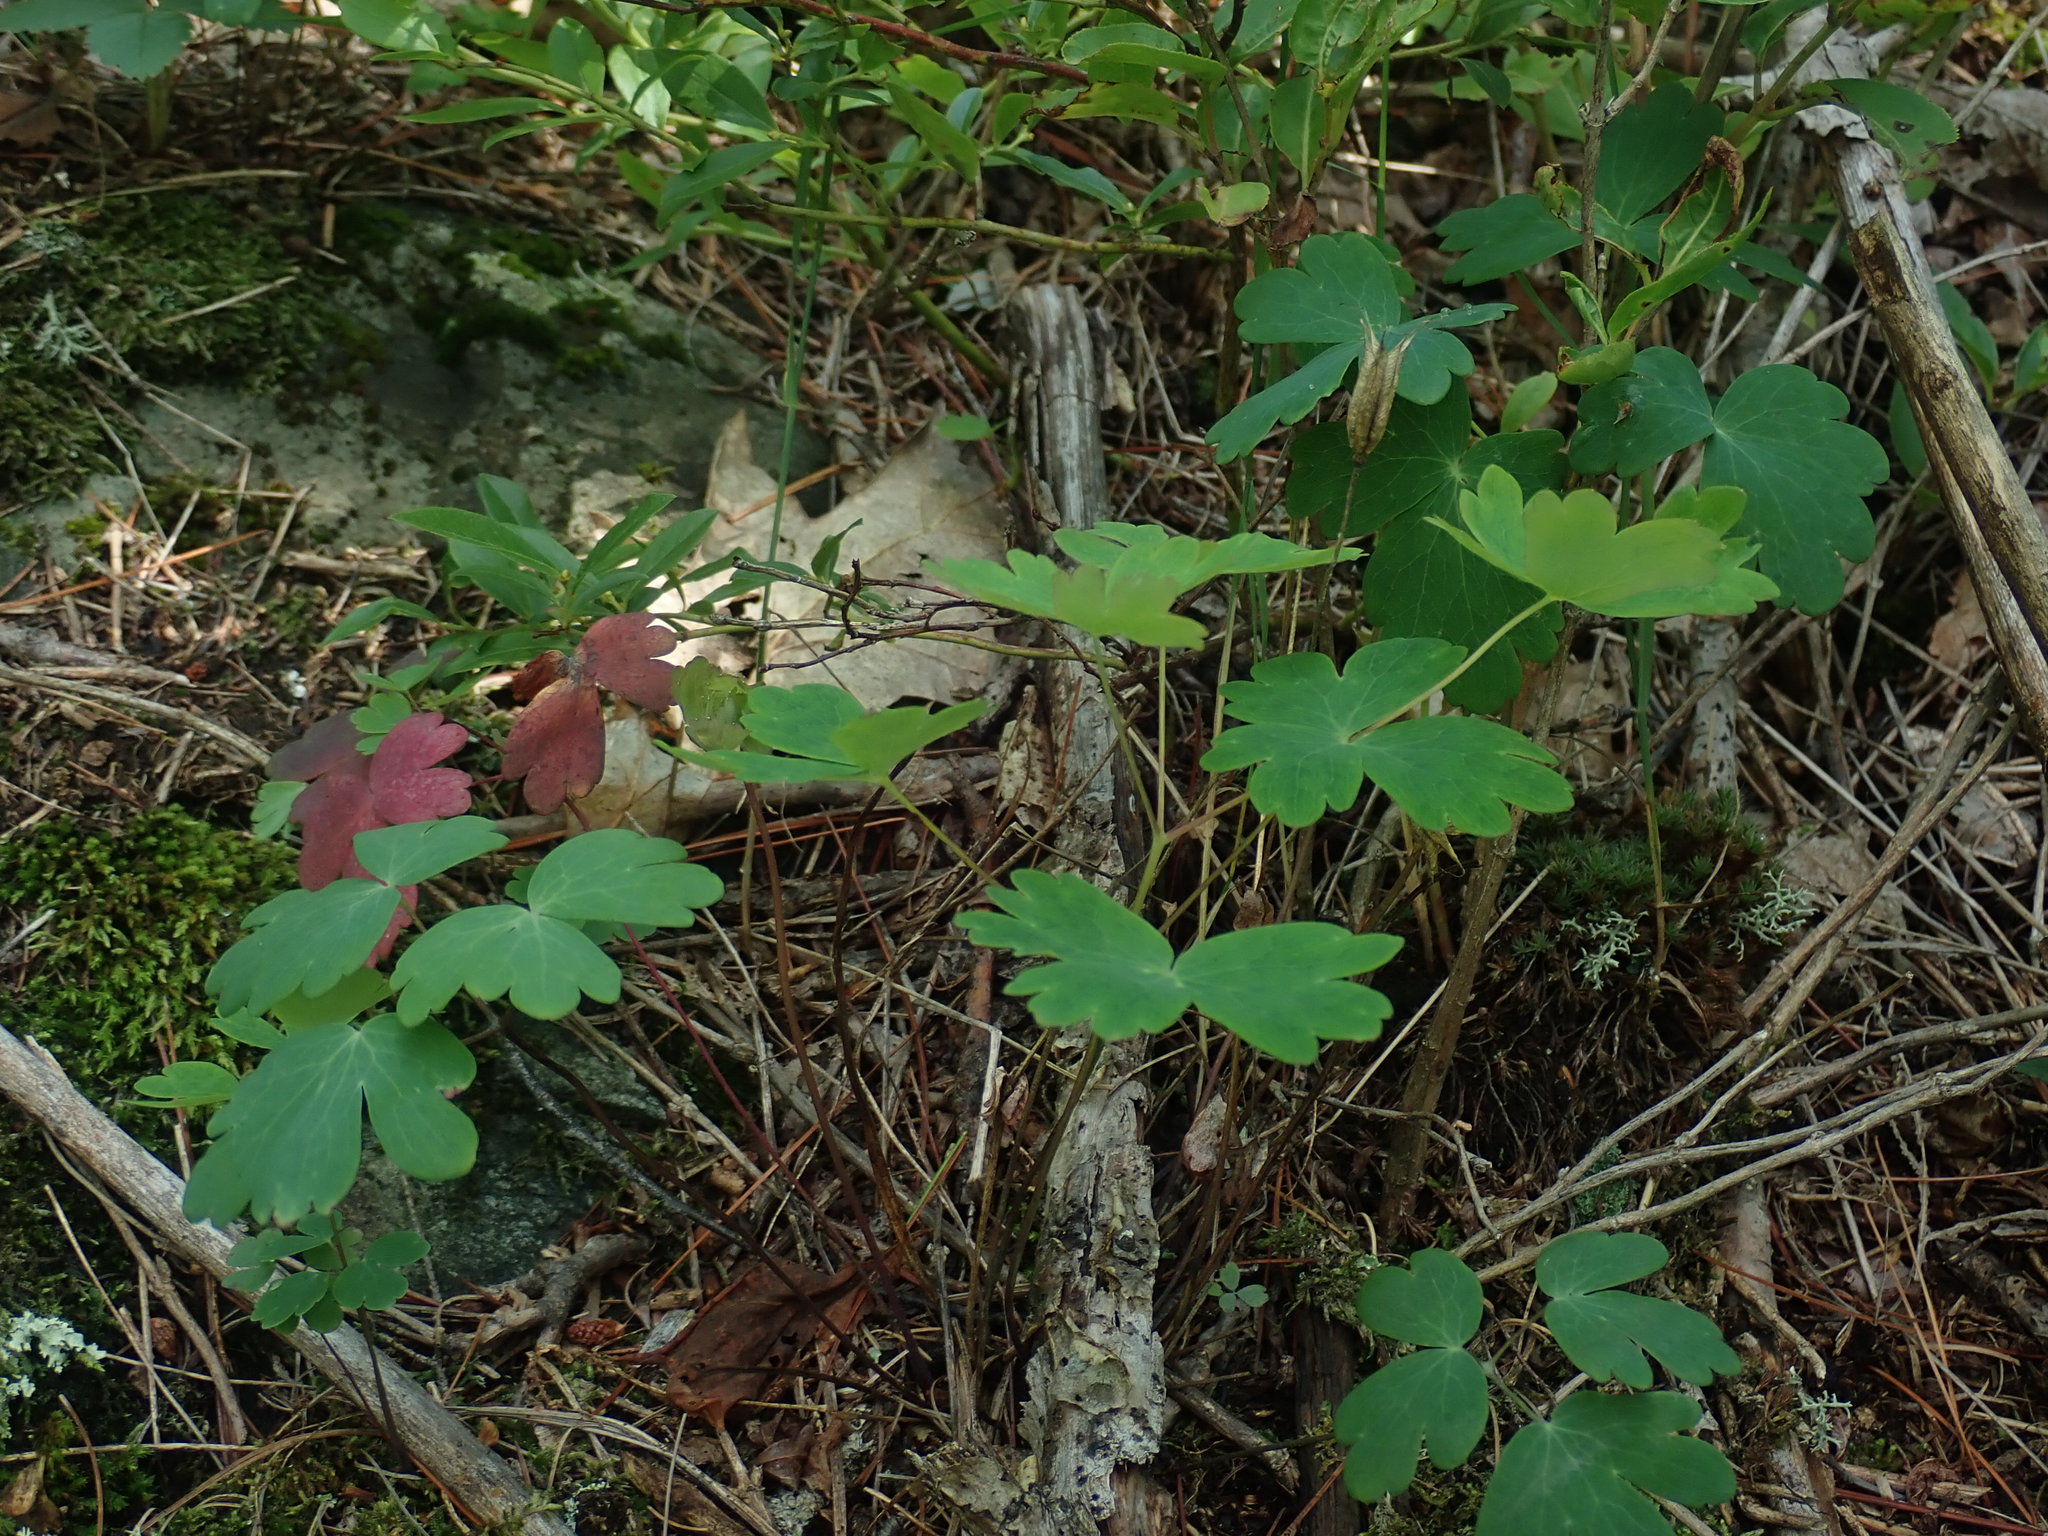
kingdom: Plantae
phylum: Tracheophyta
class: Magnoliopsida
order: Ranunculales
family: Ranunculaceae
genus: Aquilegia
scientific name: Aquilegia canadensis
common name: American columbine
